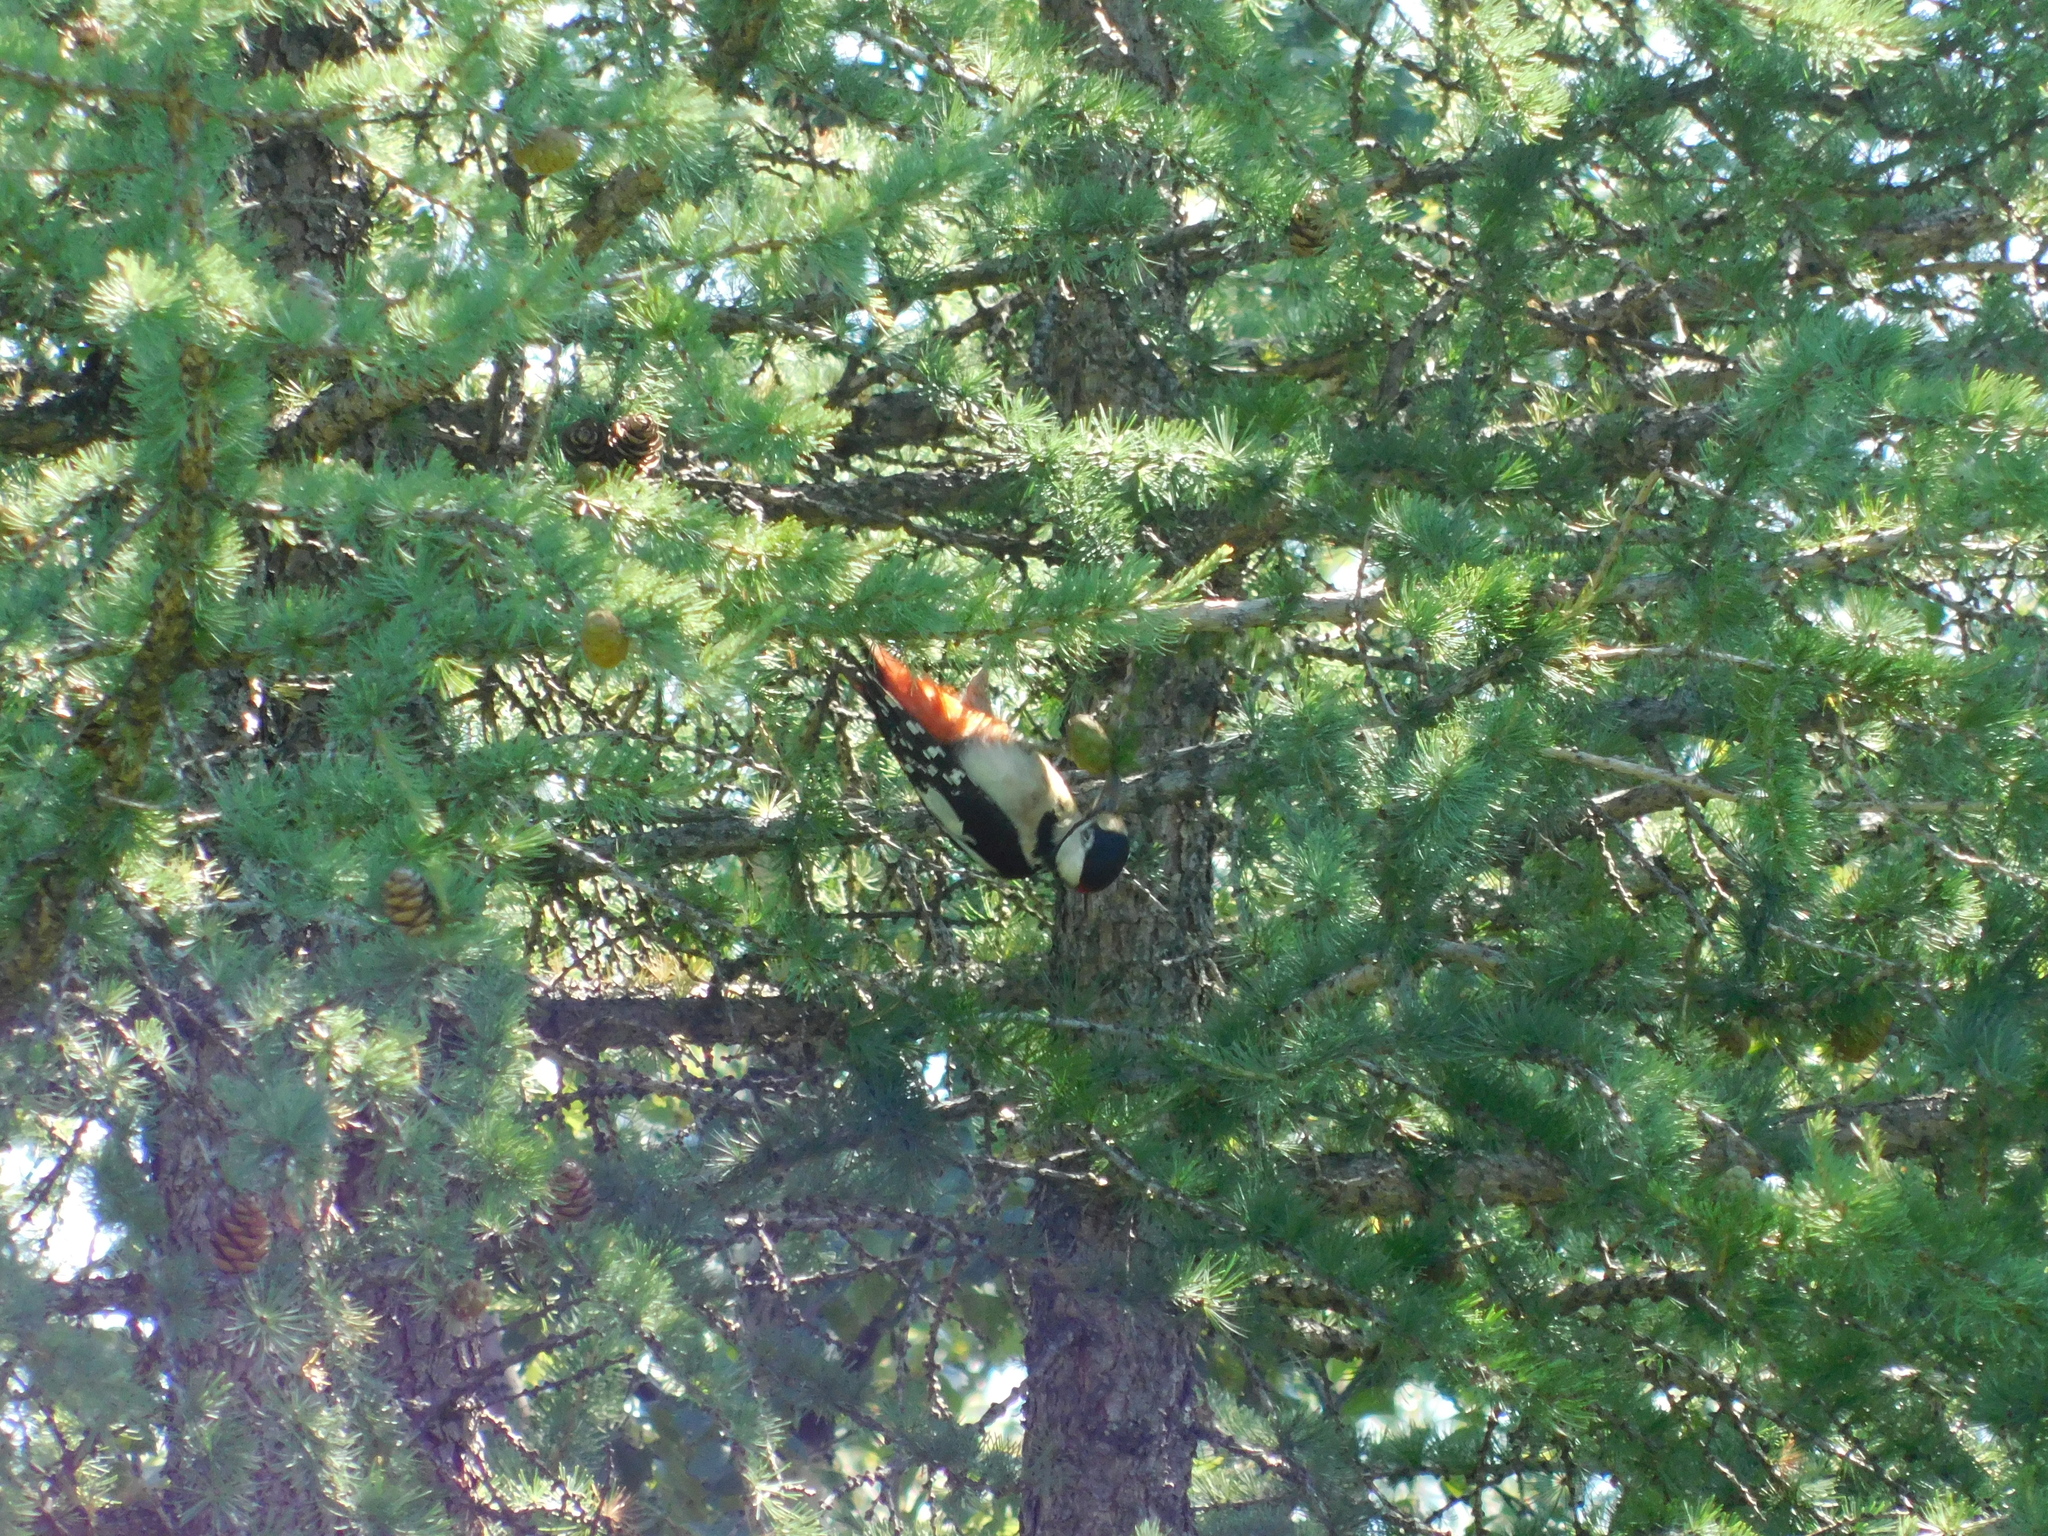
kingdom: Animalia
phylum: Chordata
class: Aves
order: Piciformes
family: Picidae
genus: Dendrocopos
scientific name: Dendrocopos major
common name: Great spotted woodpecker
